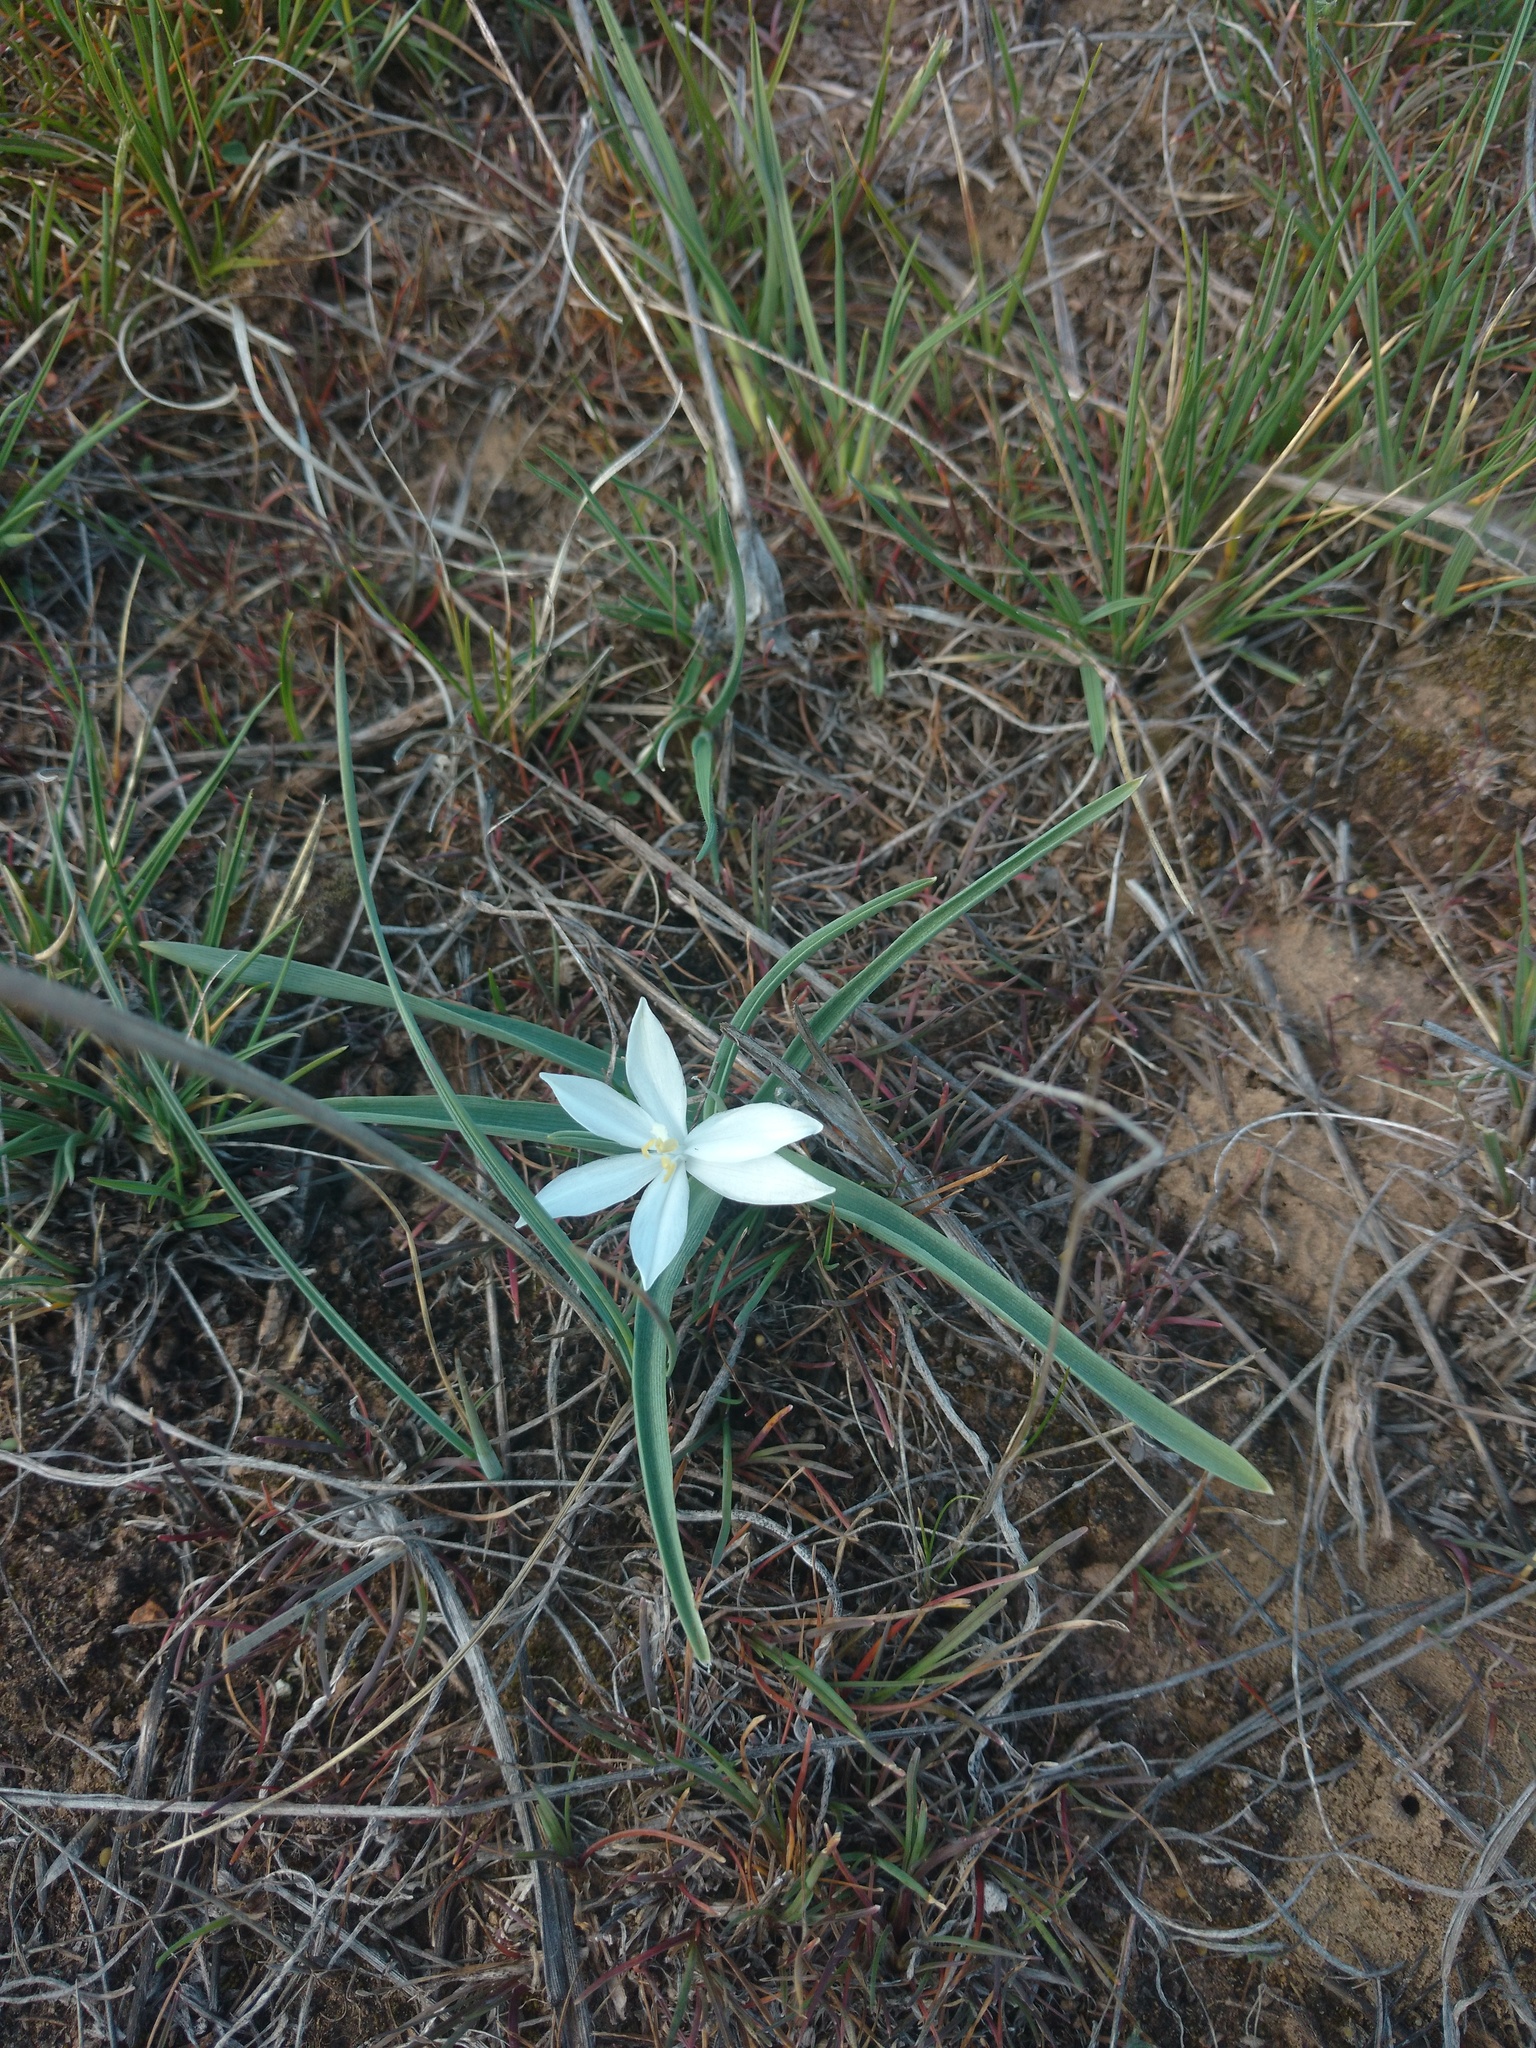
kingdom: Plantae
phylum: Tracheophyta
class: Liliopsida
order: Asparagales
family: Asparagaceae
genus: Leucocrinum
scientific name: Leucocrinum montanum
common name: Mountain-lily
